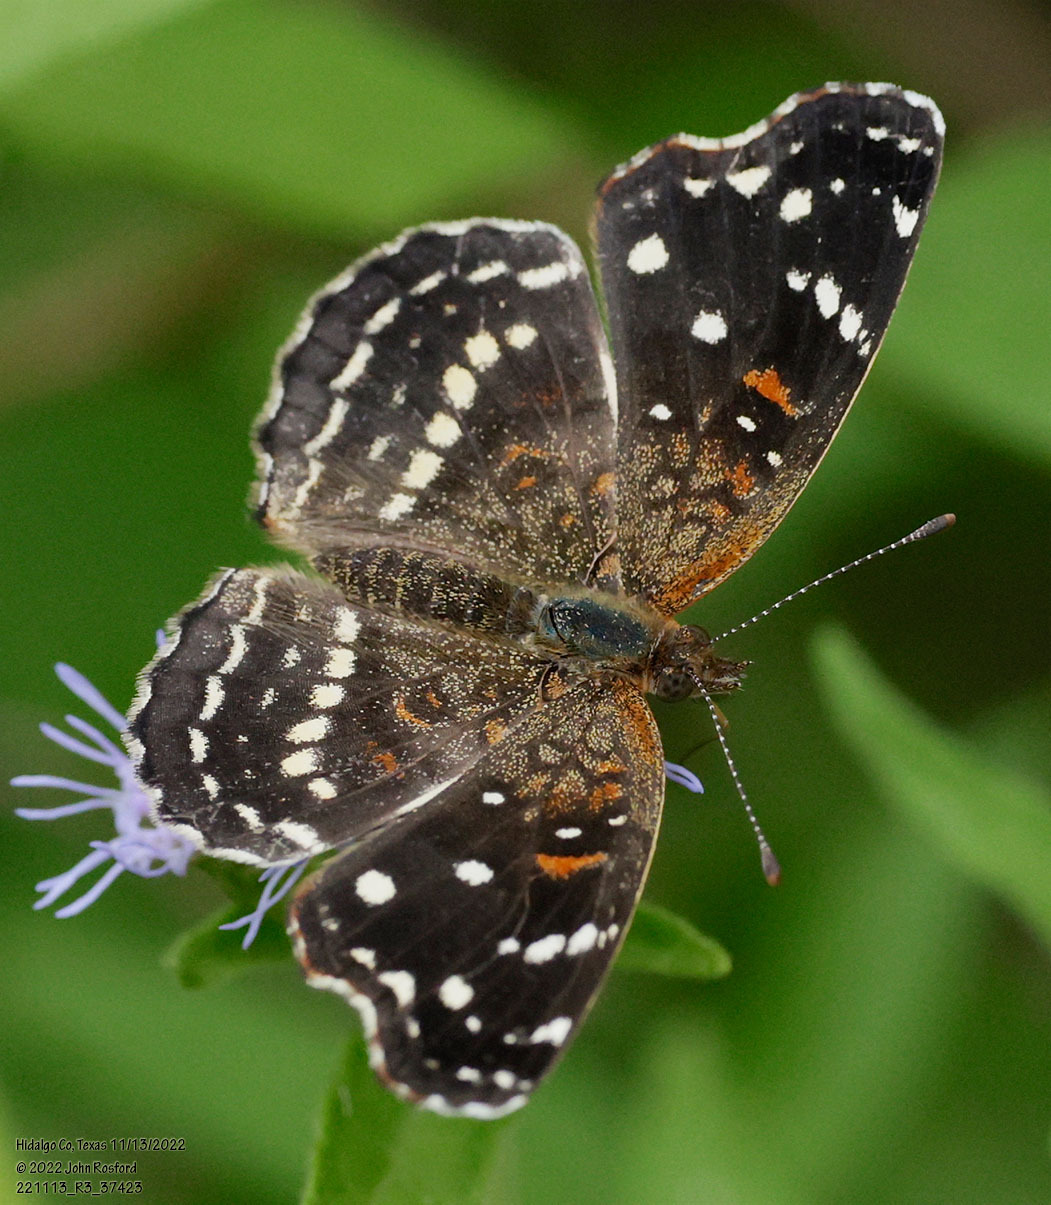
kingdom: Animalia
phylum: Arthropoda
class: Insecta
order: Lepidoptera
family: Nymphalidae
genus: Anthanassa
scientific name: Anthanassa texana
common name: Texan crescent
